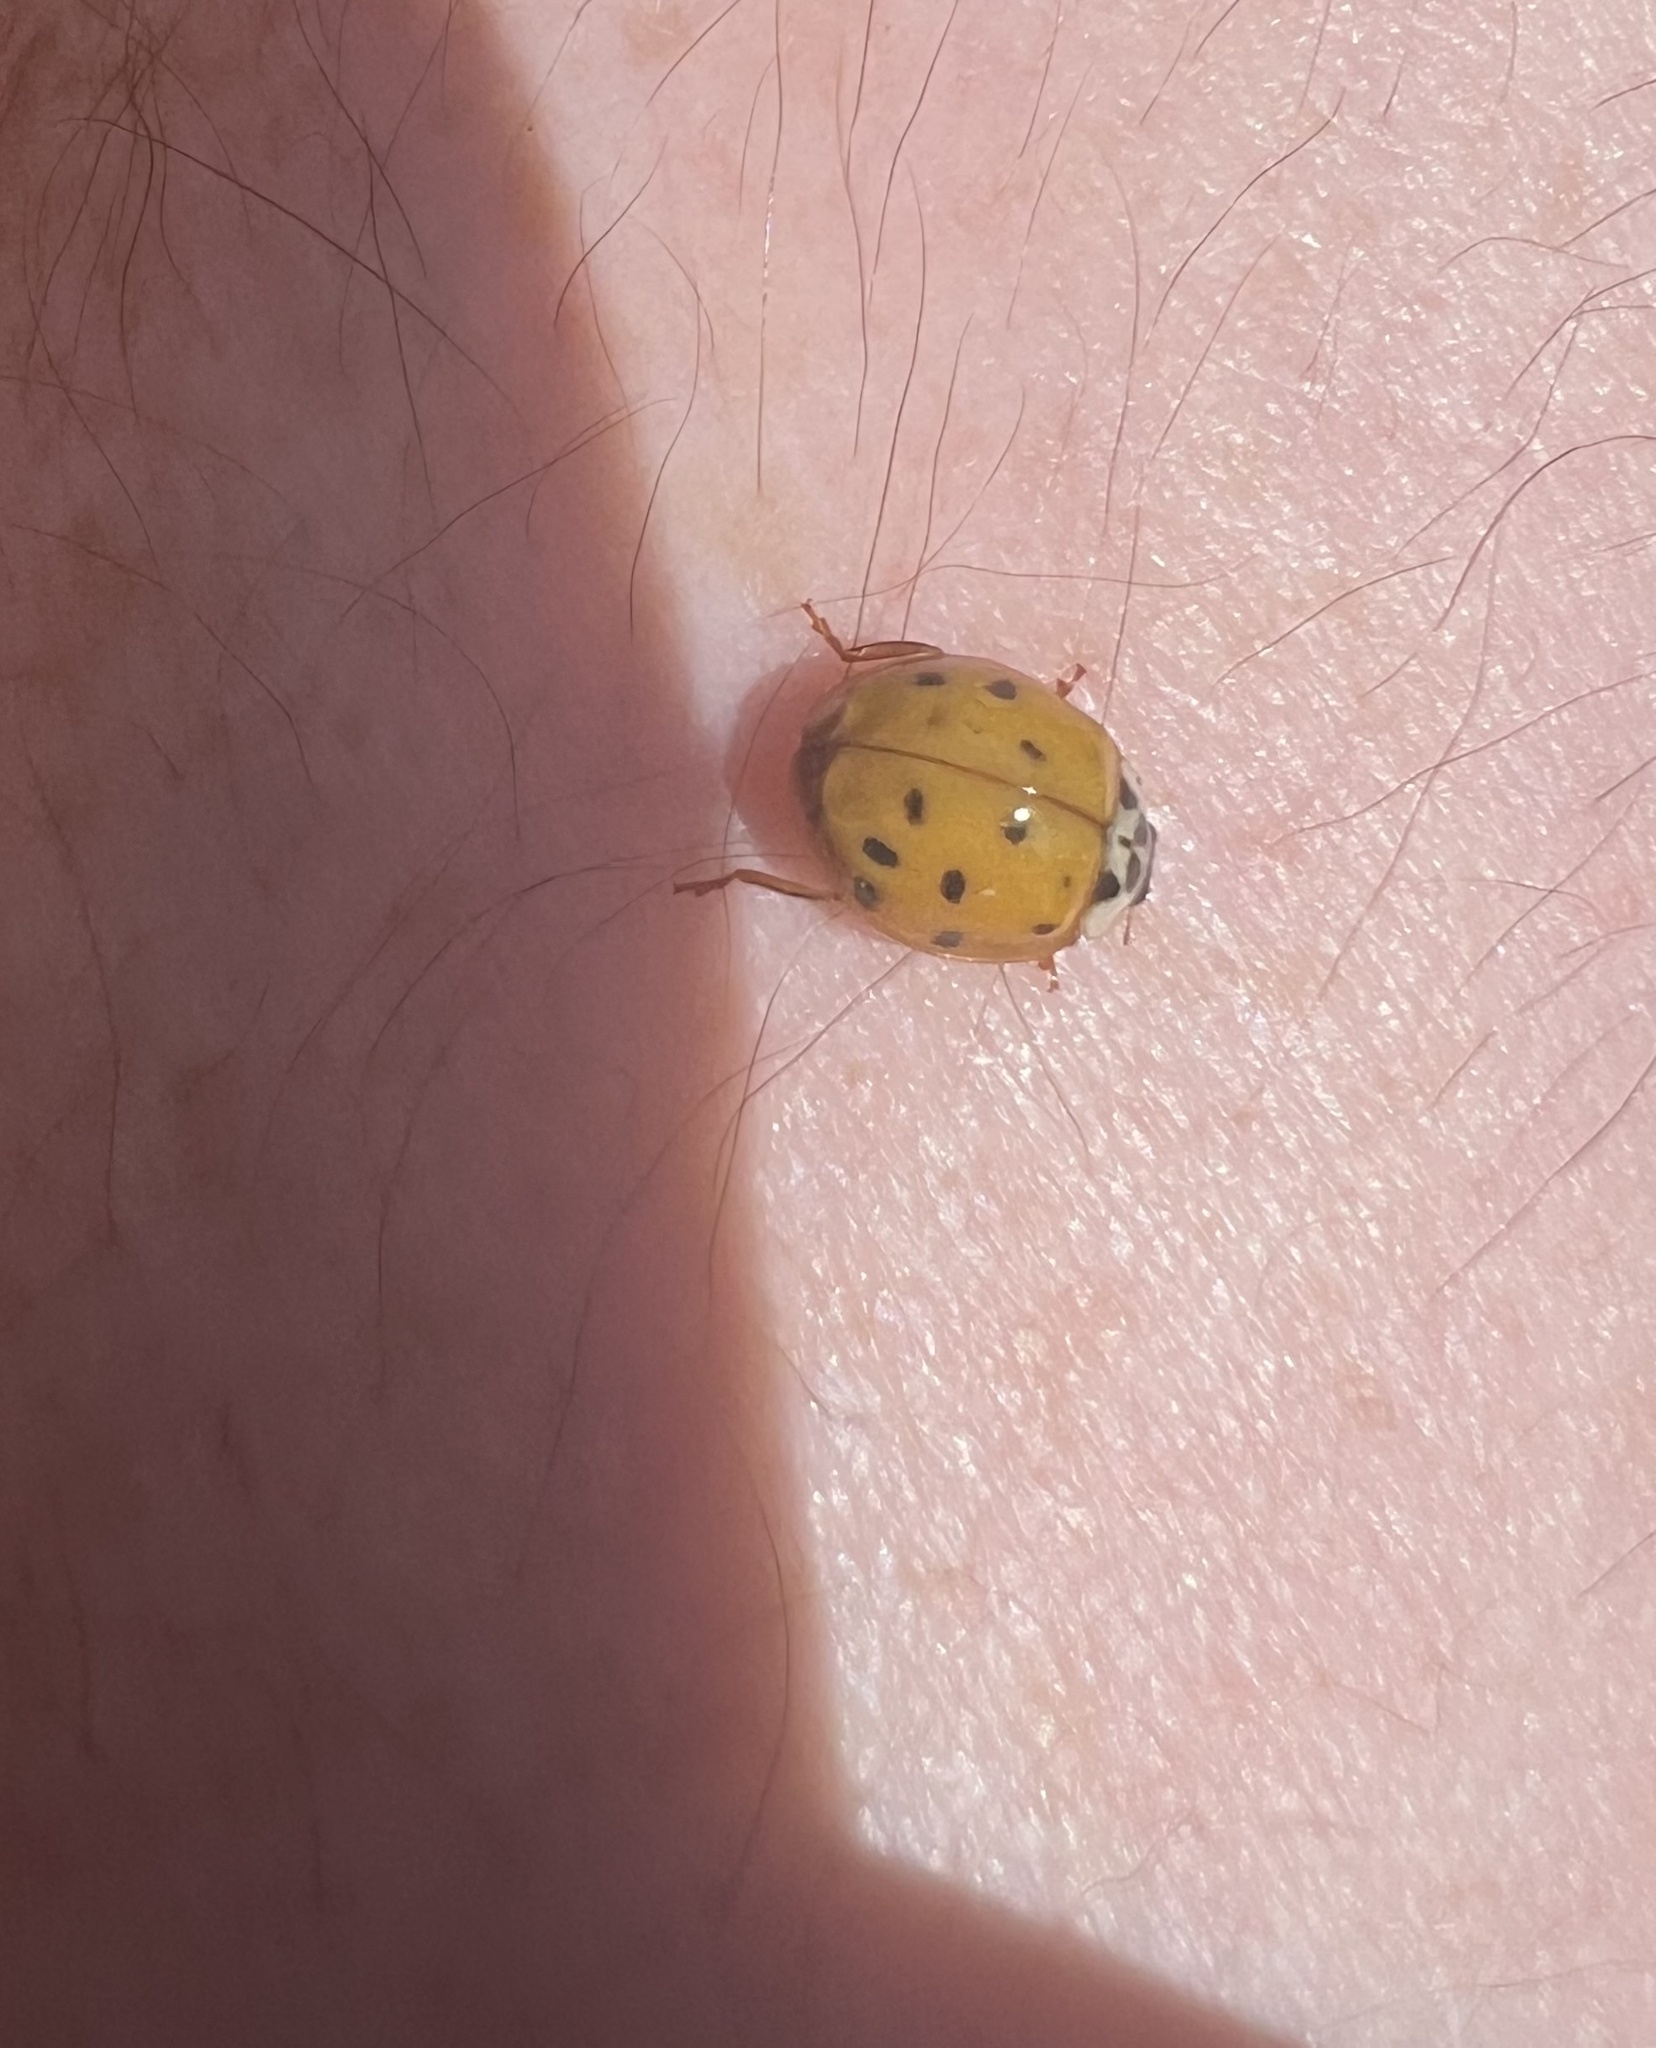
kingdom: Animalia
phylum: Arthropoda
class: Insecta
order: Coleoptera
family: Coccinellidae
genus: Harmonia
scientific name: Harmonia axyridis
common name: Harlequin ladybird
